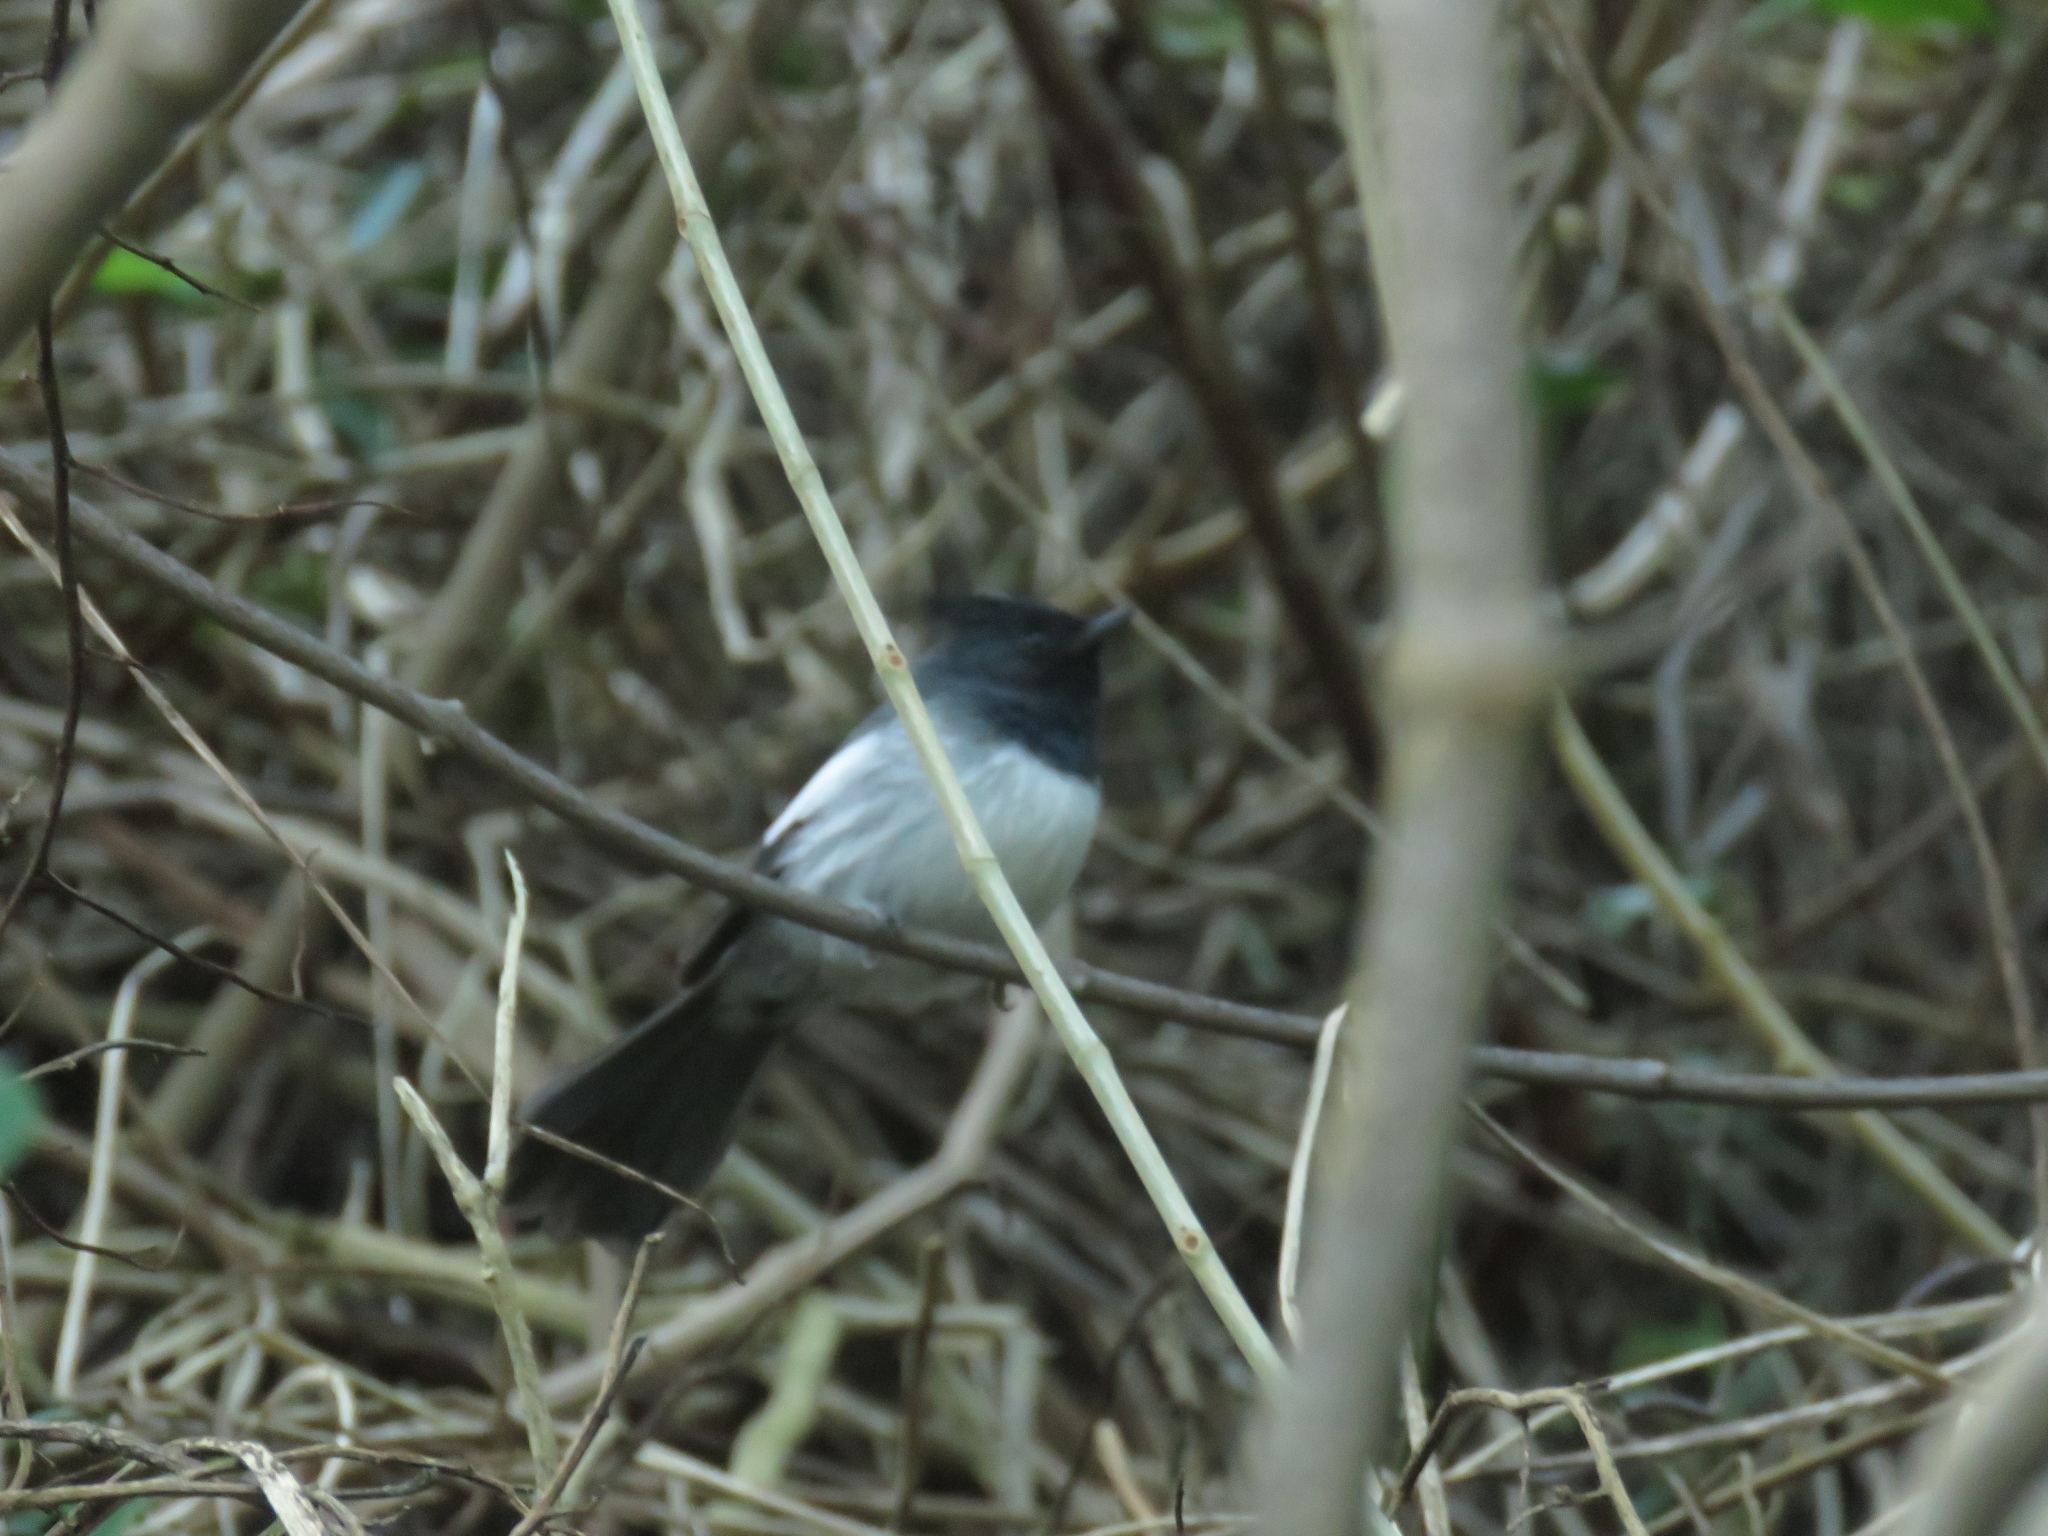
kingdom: Animalia
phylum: Chordata
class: Aves
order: Passeriformes
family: Monarchidae
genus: Trochocercus
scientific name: Trochocercus cyanomelas
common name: Blue-mantled crested flycatcher
